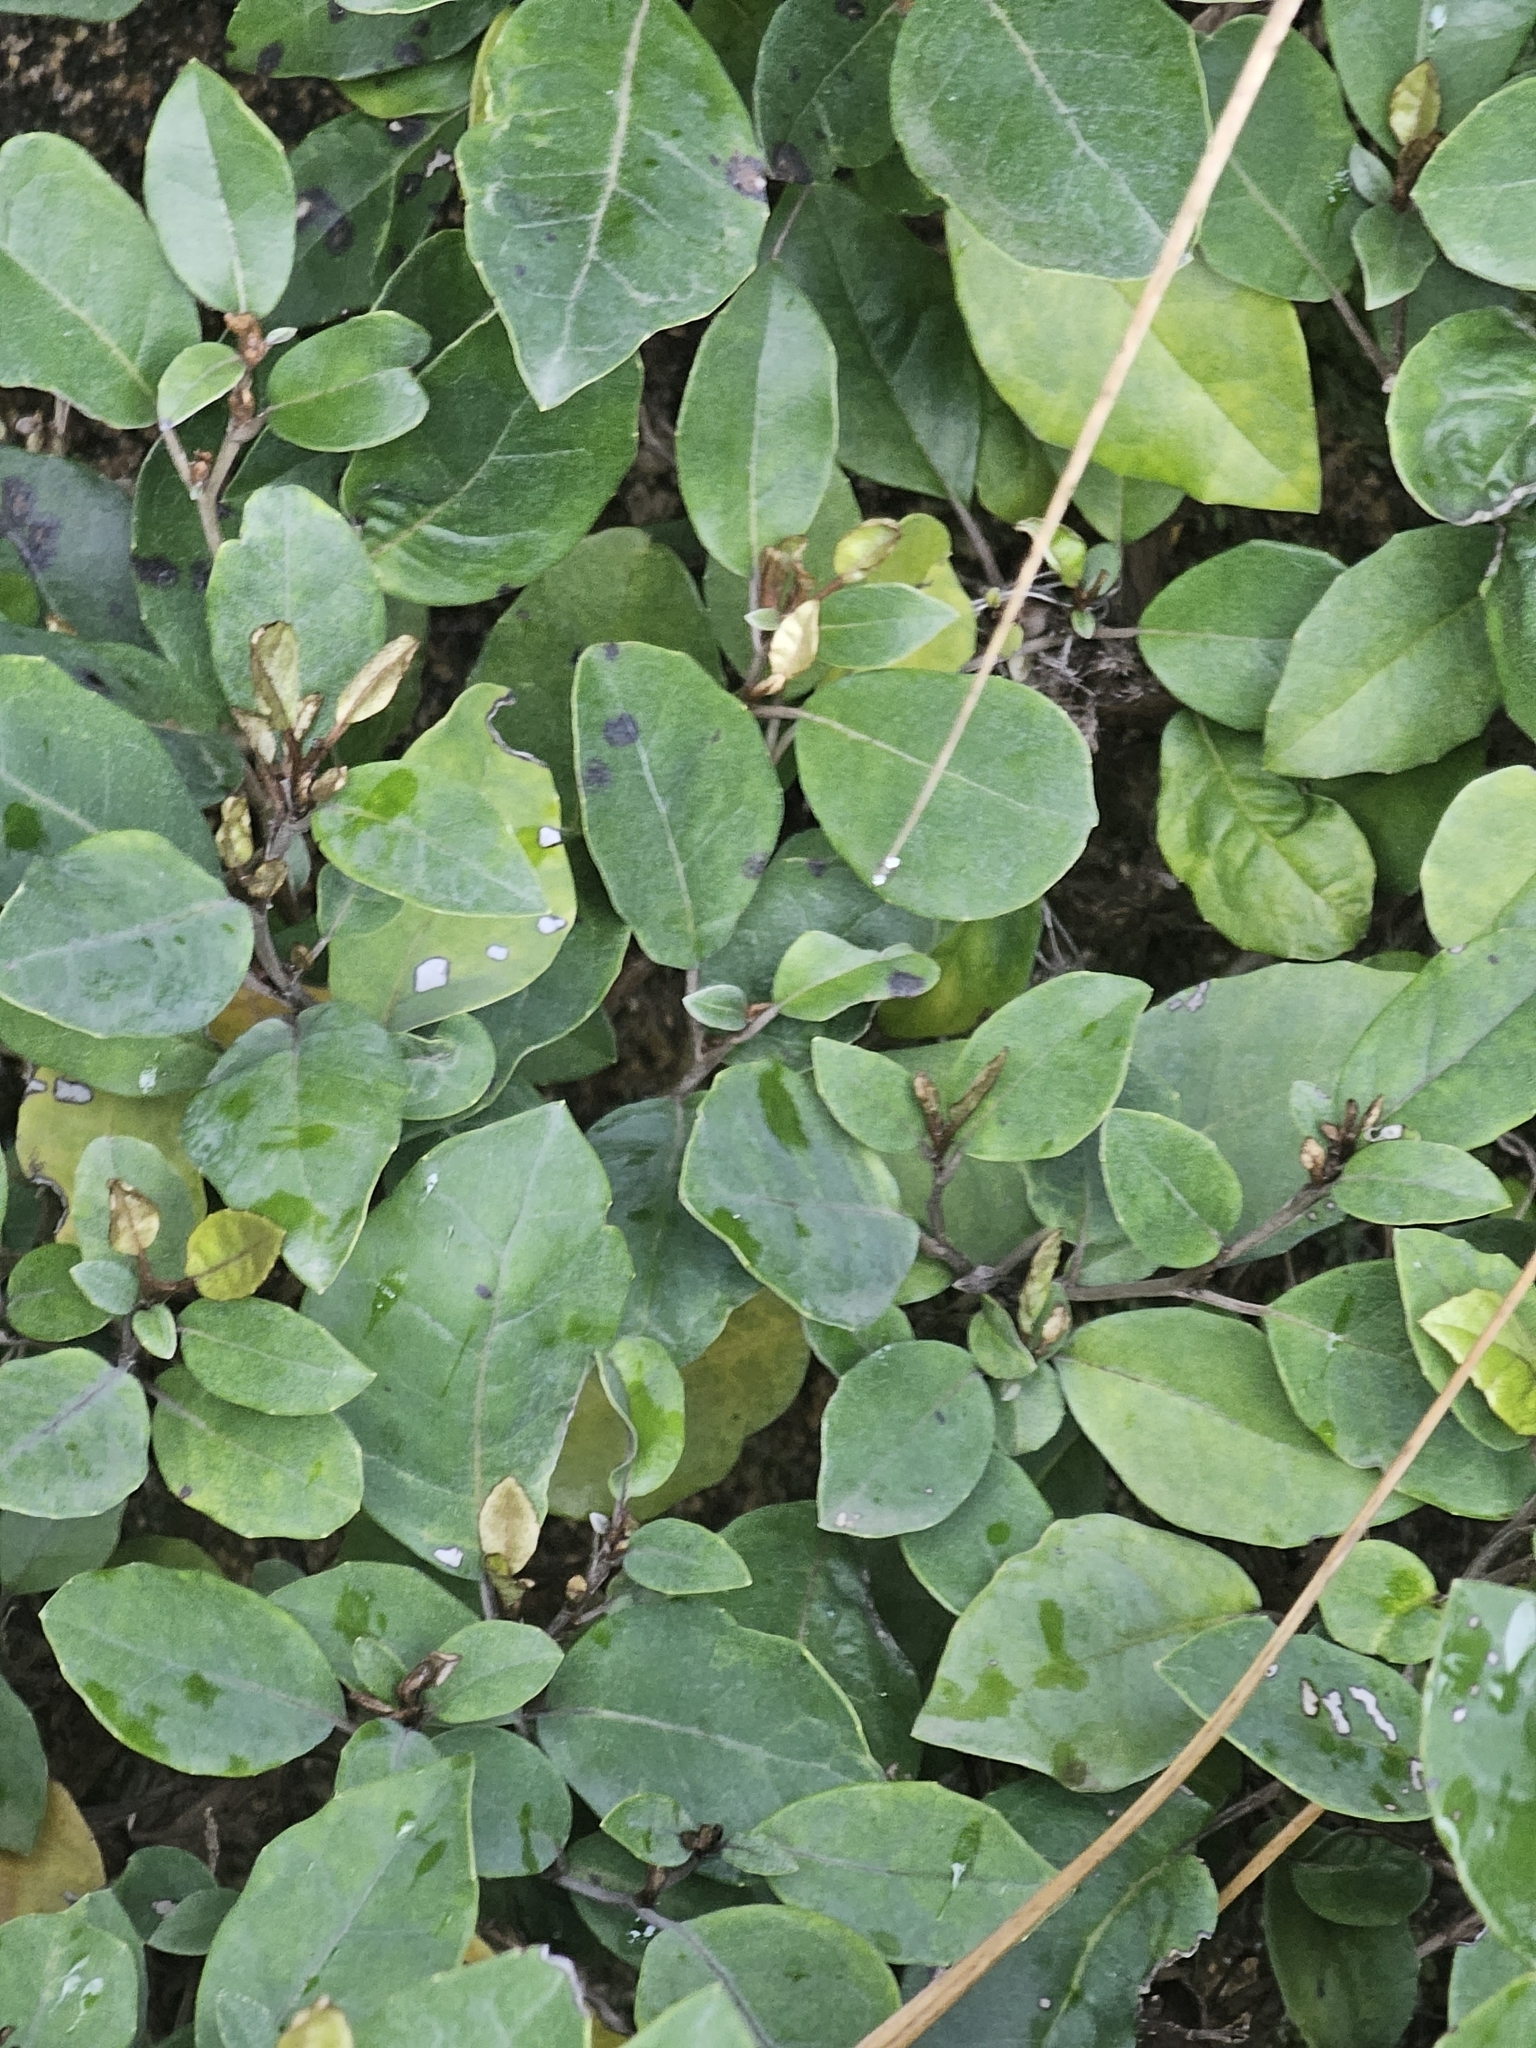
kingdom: Plantae
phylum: Tracheophyta
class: Magnoliopsida
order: Asterales
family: Asteraceae
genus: Olearia
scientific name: Olearia arborescens
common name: Glossy tree daisy
